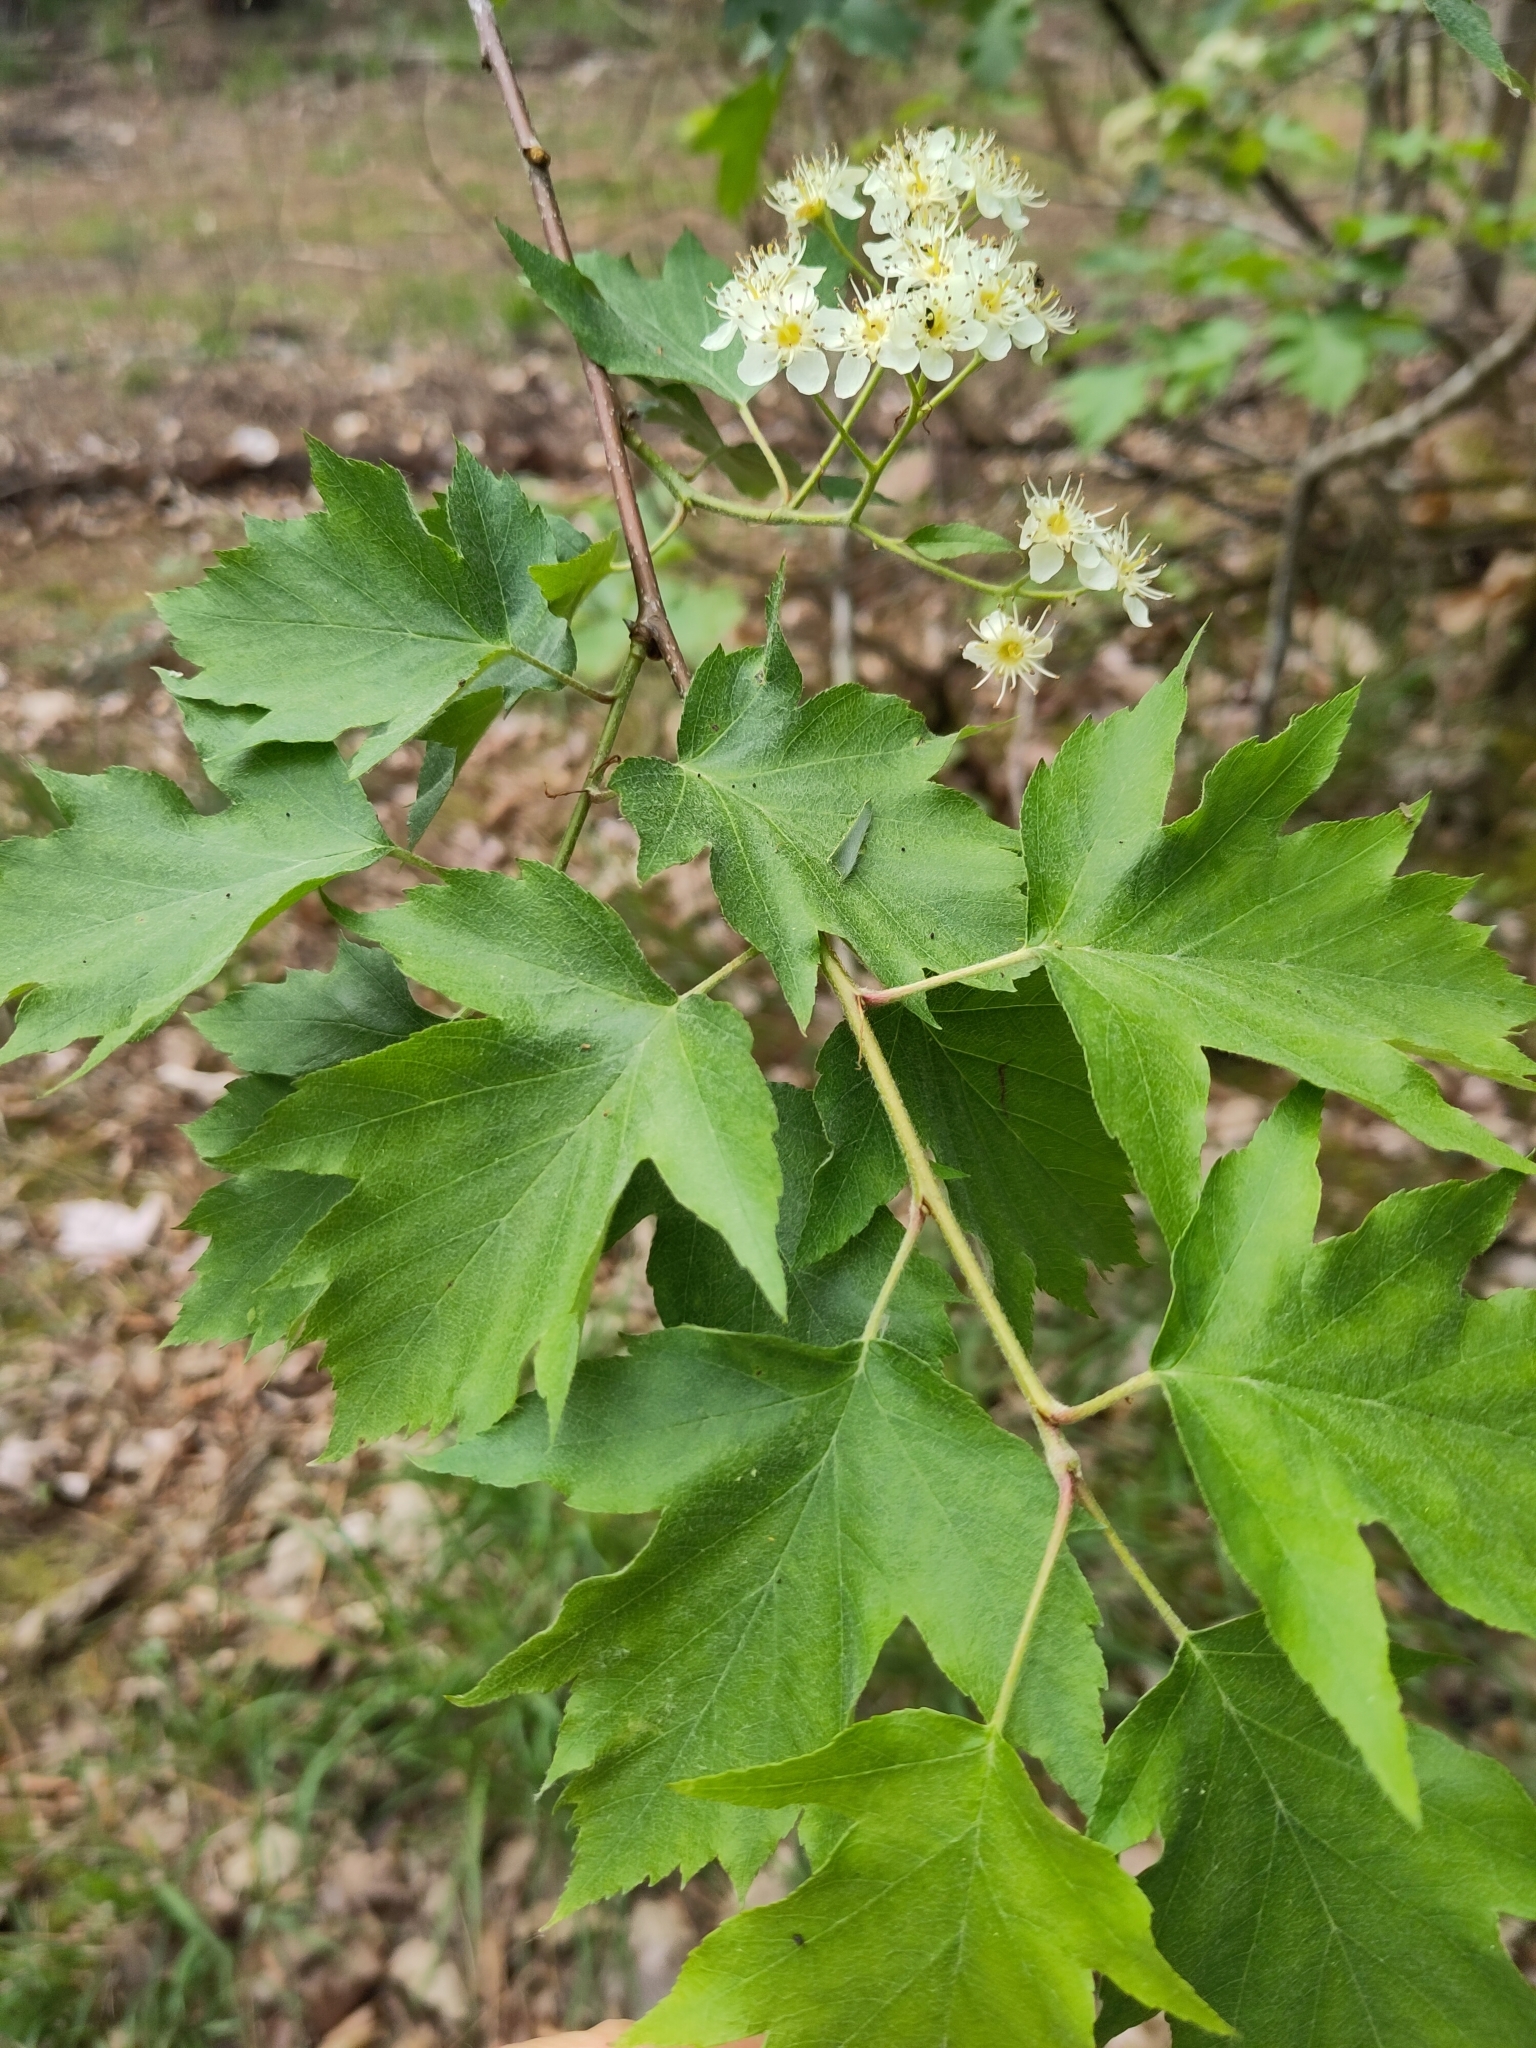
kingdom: Plantae
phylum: Tracheophyta
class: Magnoliopsida
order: Rosales
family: Rosaceae
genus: Torminalis
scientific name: Torminalis glaberrima
